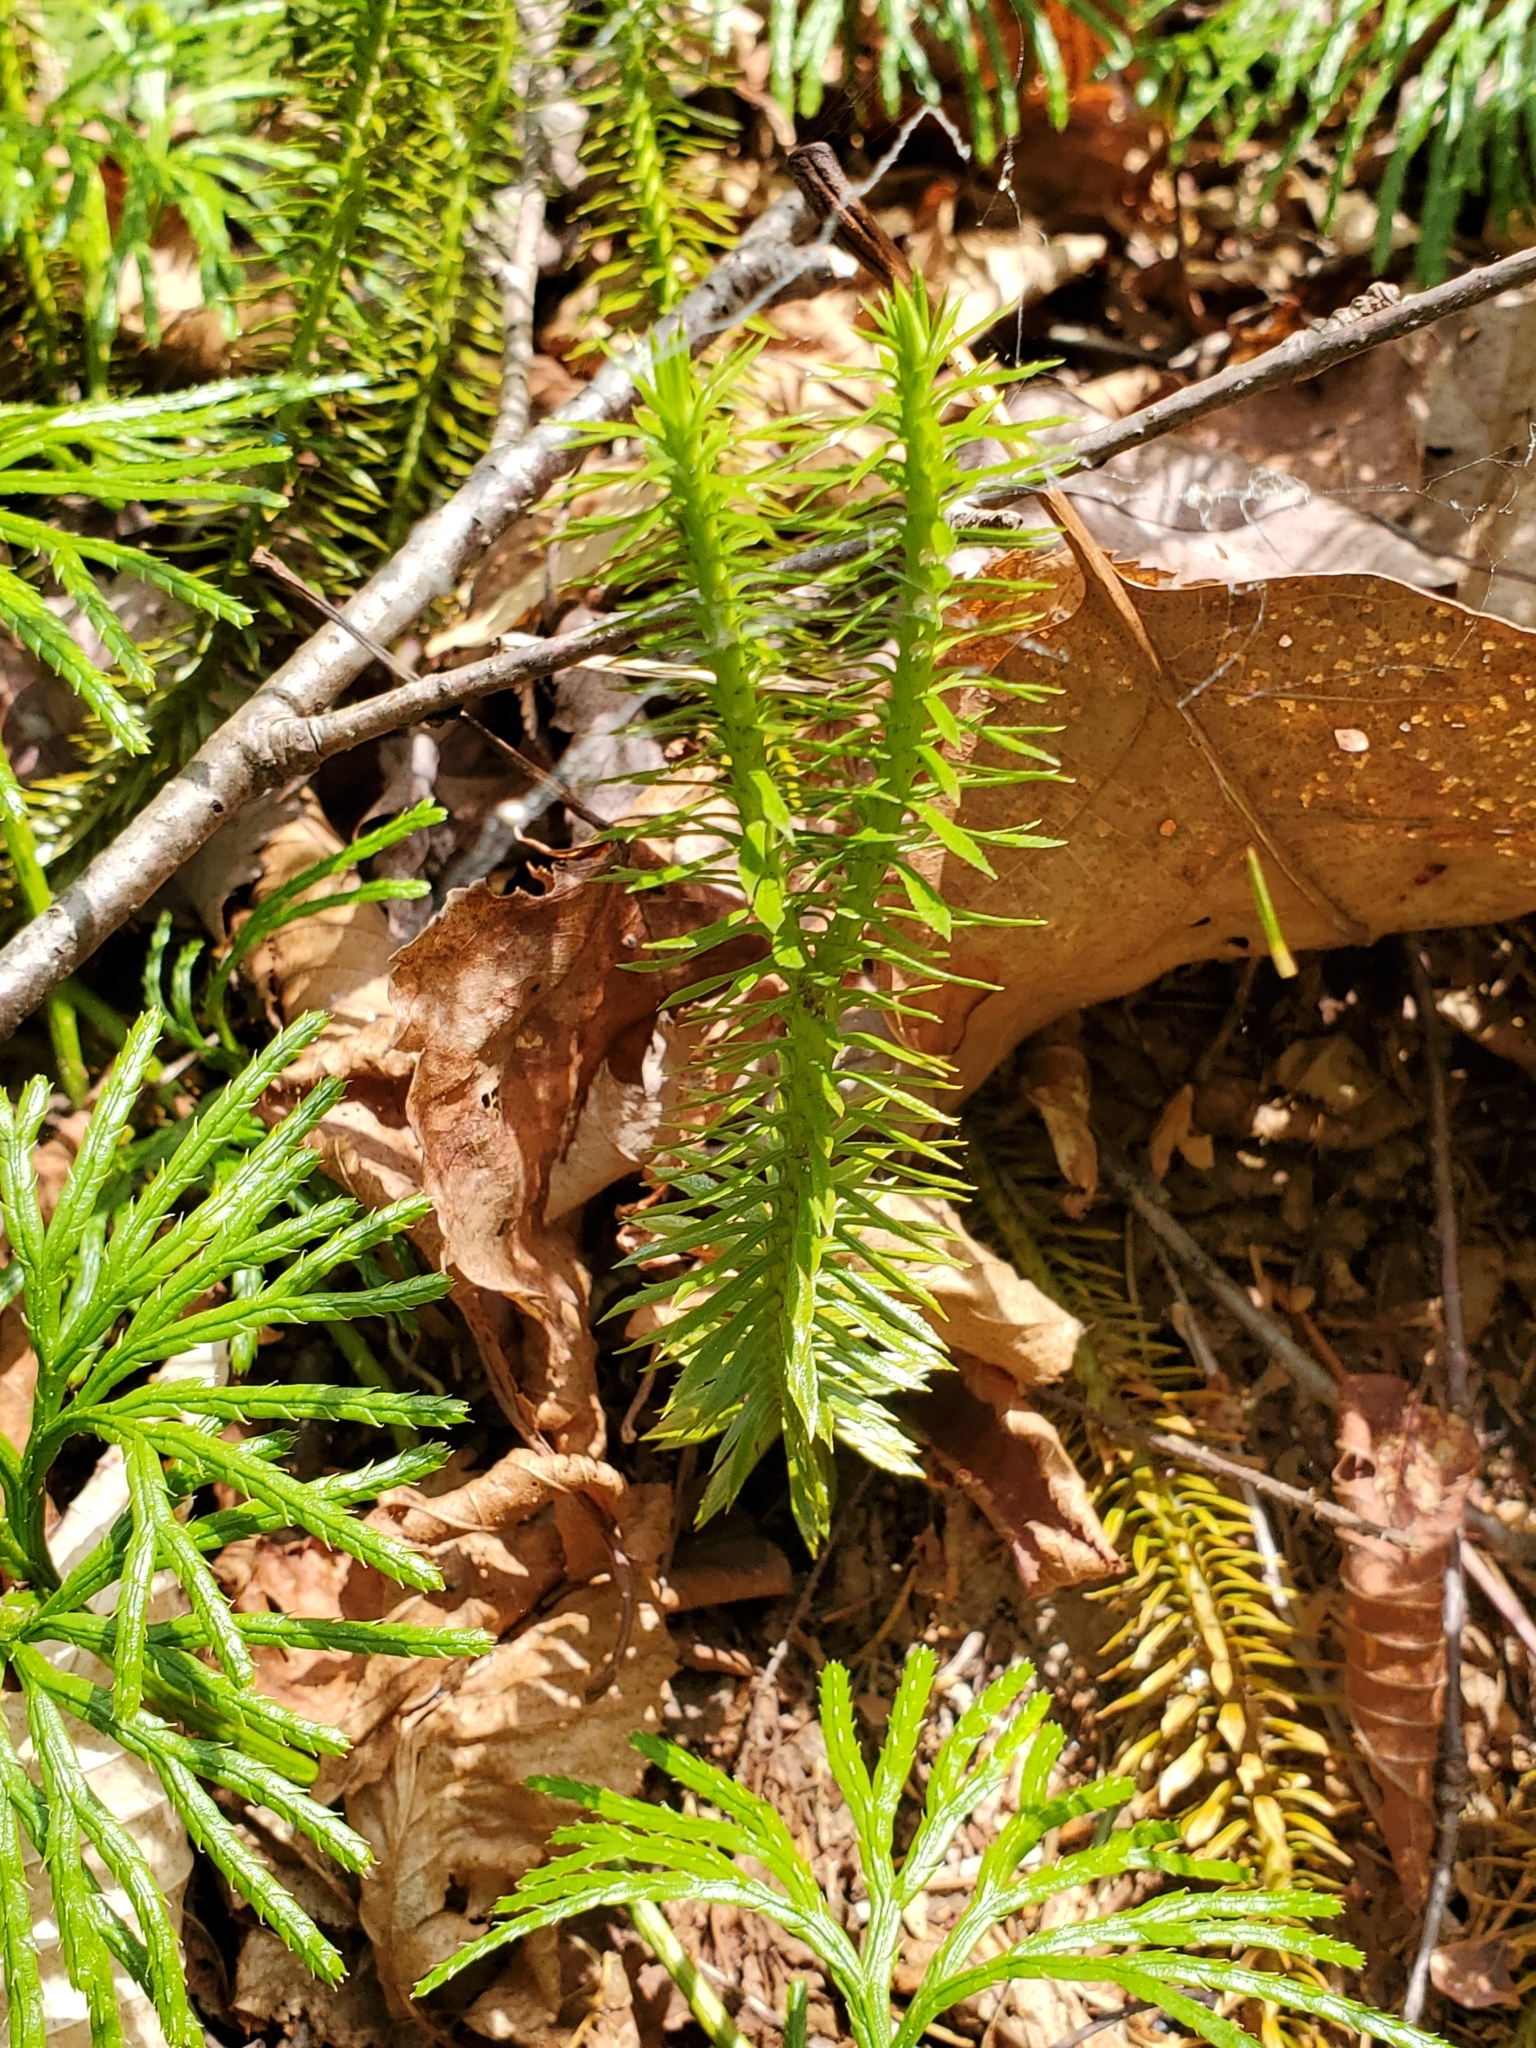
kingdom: Plantae
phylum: Tracheophyta
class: Lycopodiopsida
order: Lycopodiales
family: Lycopodiaceae
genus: Huperzia
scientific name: Huperzia lucidula
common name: Shining clubmoss
